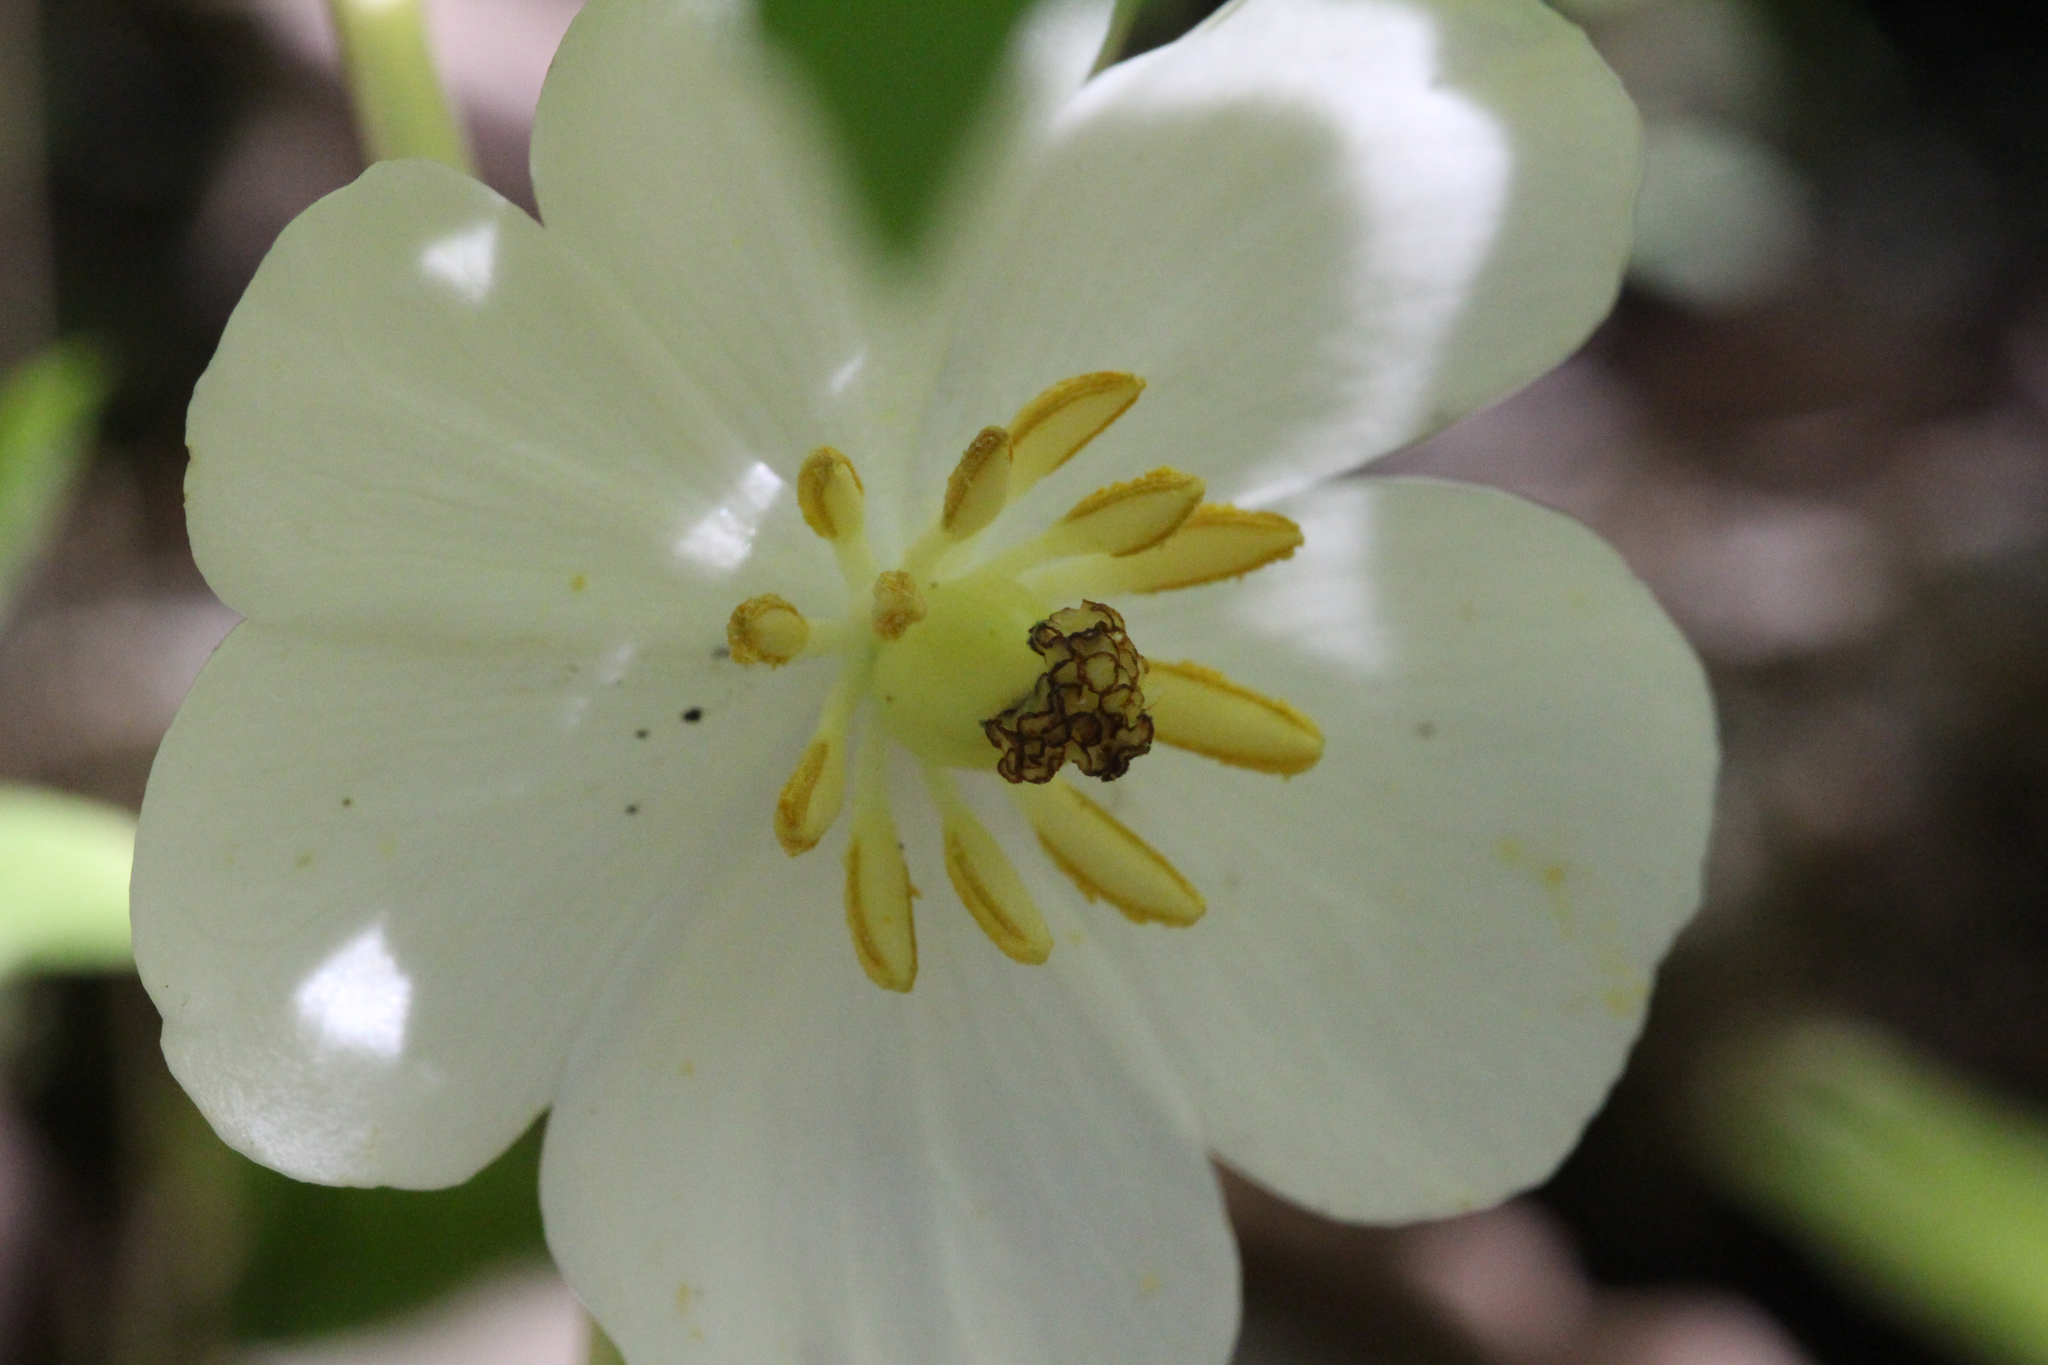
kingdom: Plantae
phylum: Tracheophyta
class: Magnoliopsida
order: Ranunculales
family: Berberidaceae
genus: Podophyllum
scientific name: Podophyllum peltatum
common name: Wild mandrake
